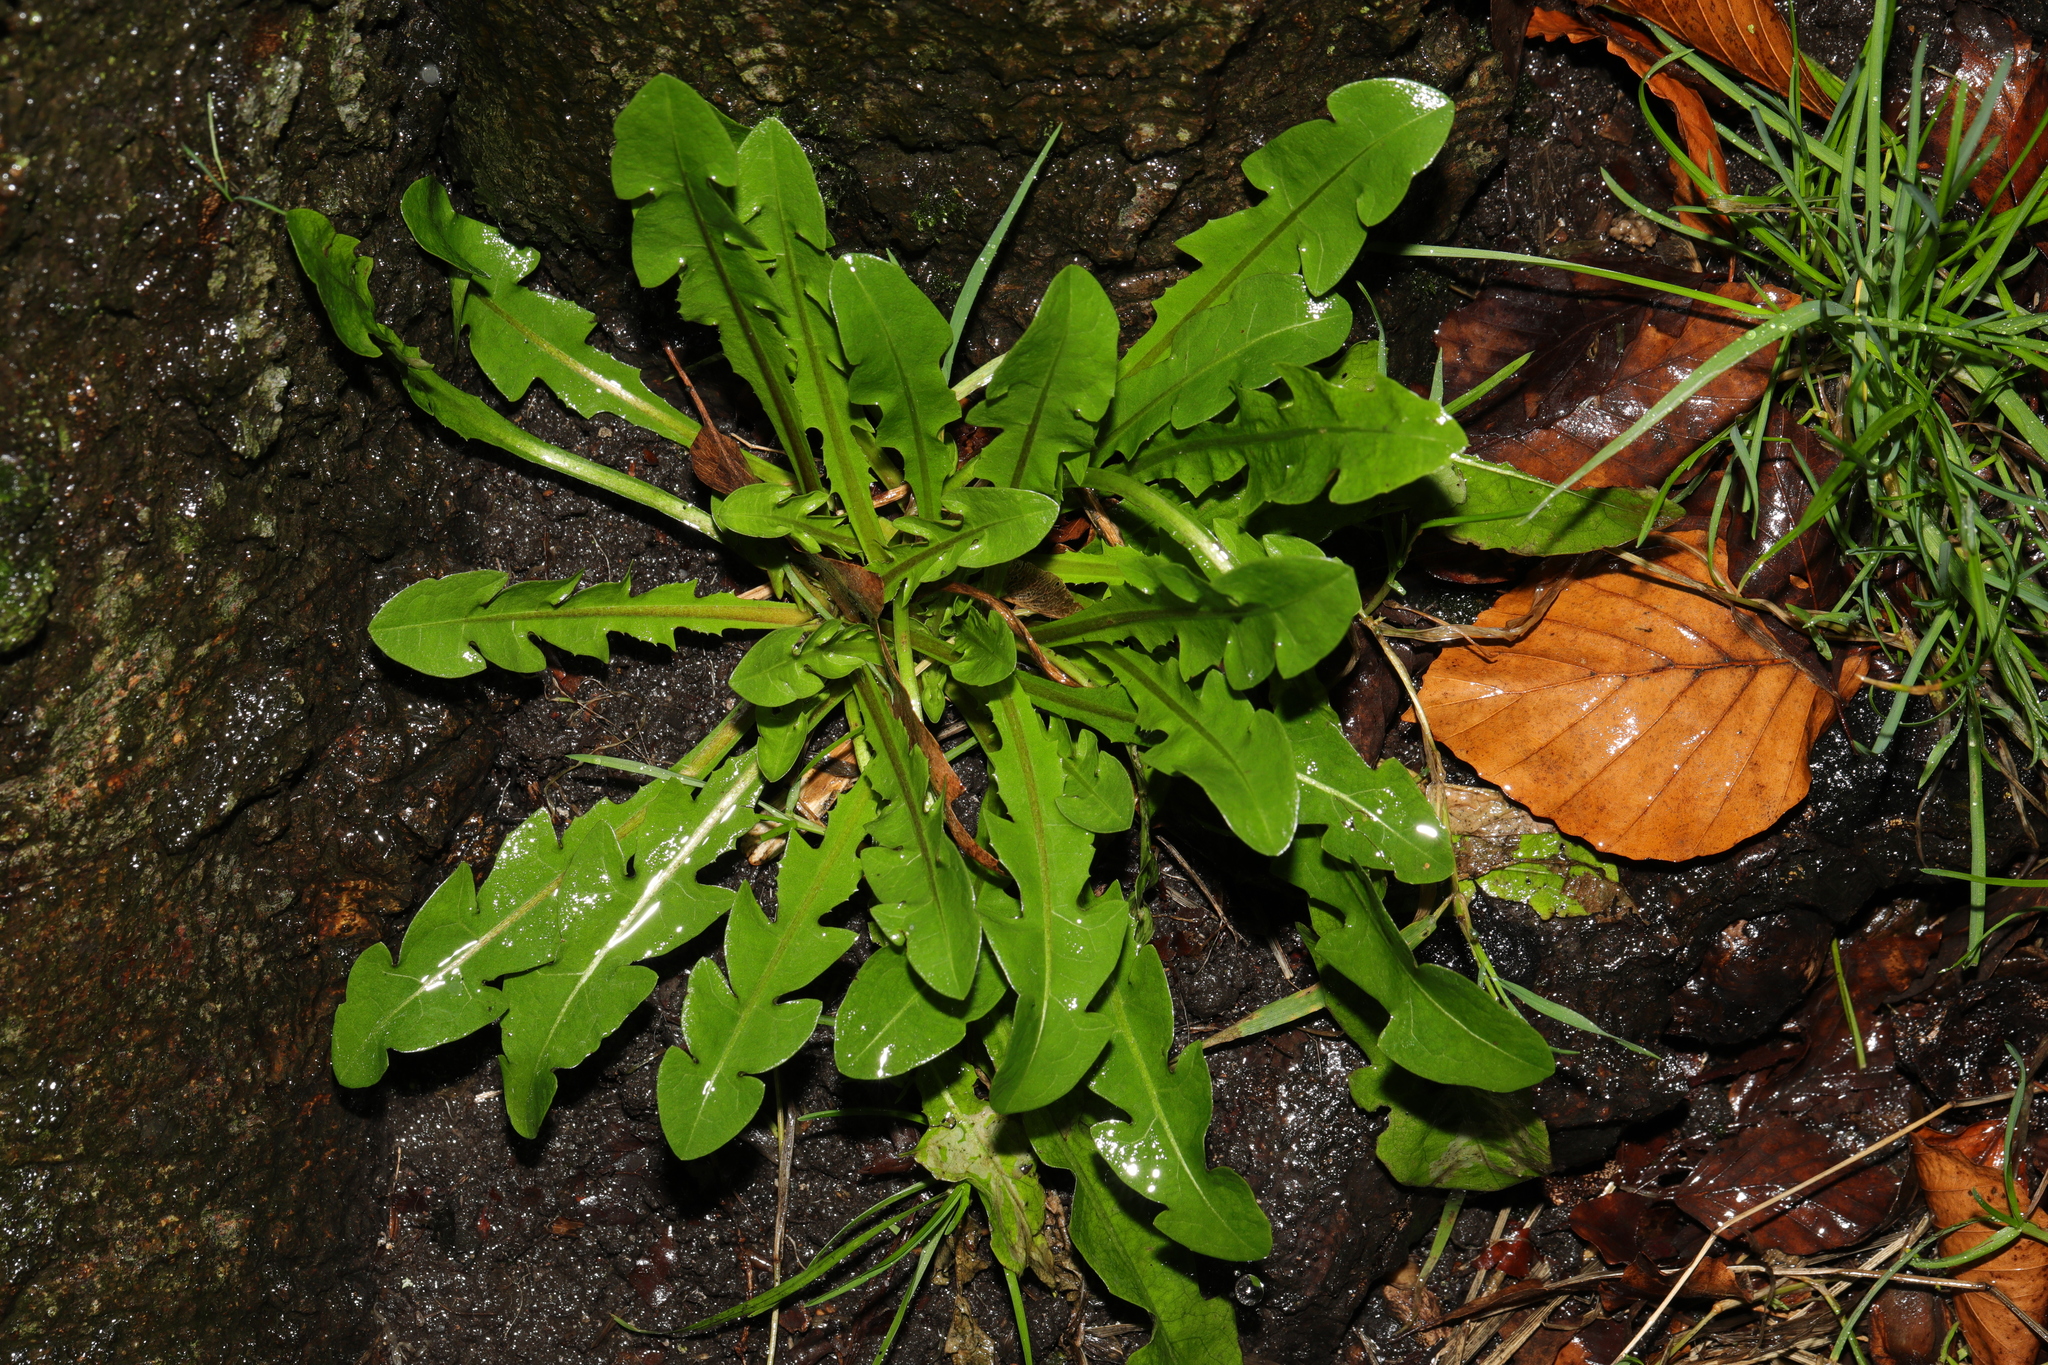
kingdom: Plantae
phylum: Tracheophyta
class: Magnoliopsida
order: Asterales
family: Asteraceae
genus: Taraxacum
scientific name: Taraxacum officinale
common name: Common dandelion
